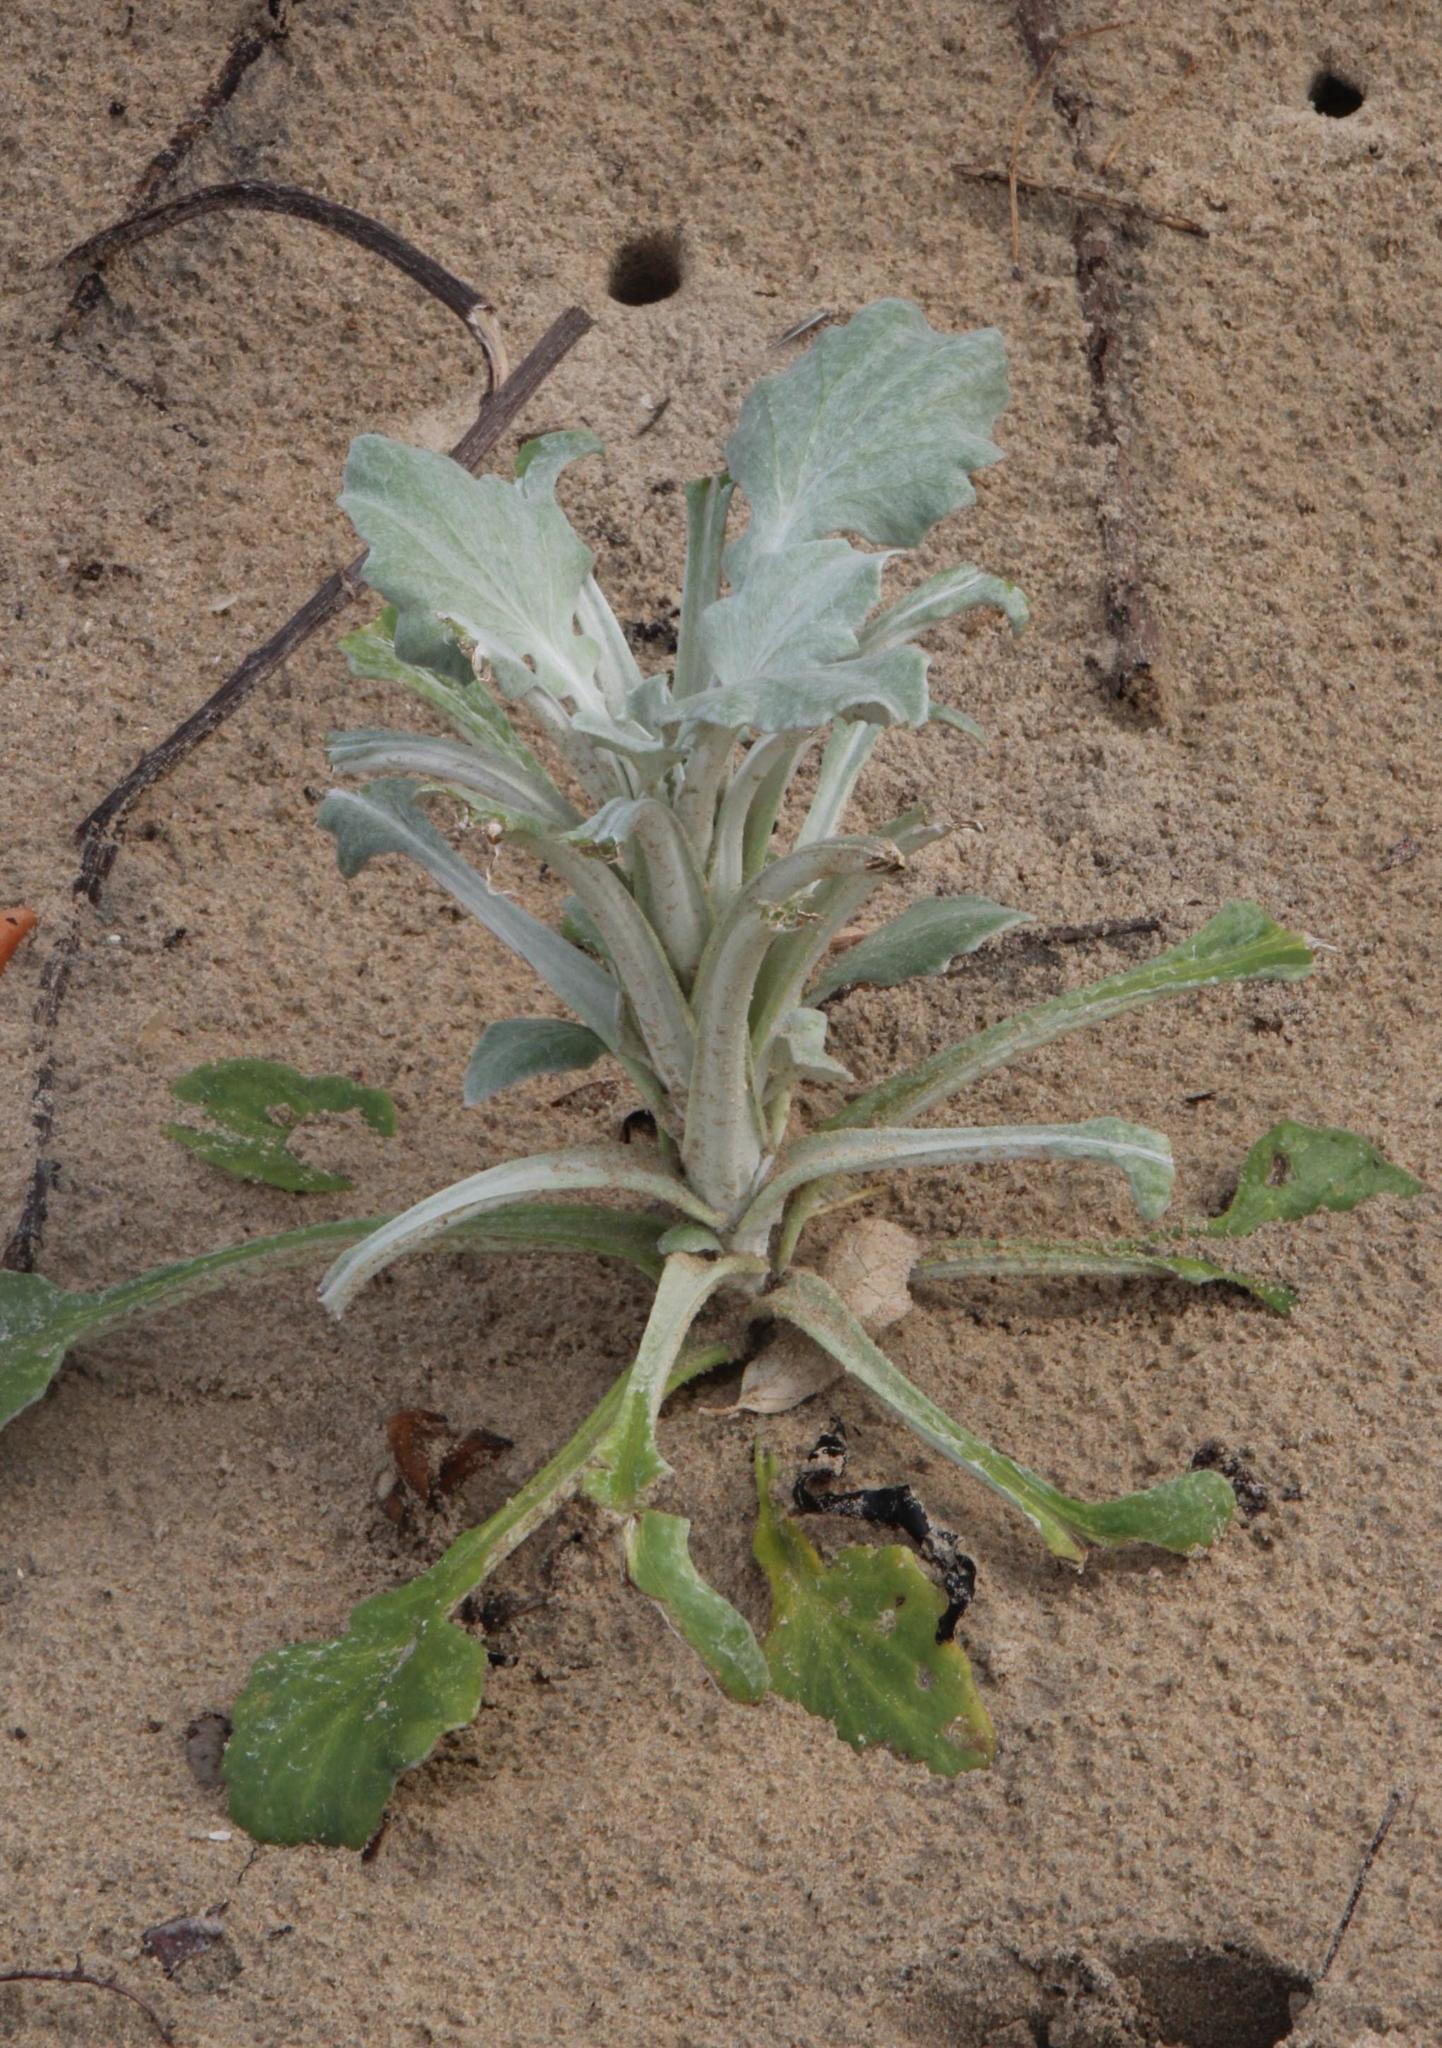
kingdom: Plantae
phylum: Tracheophyta
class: Magnoliopsida
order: Asterales
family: Asteraceae
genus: Arctotheca
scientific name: Arctotheca populifolia
